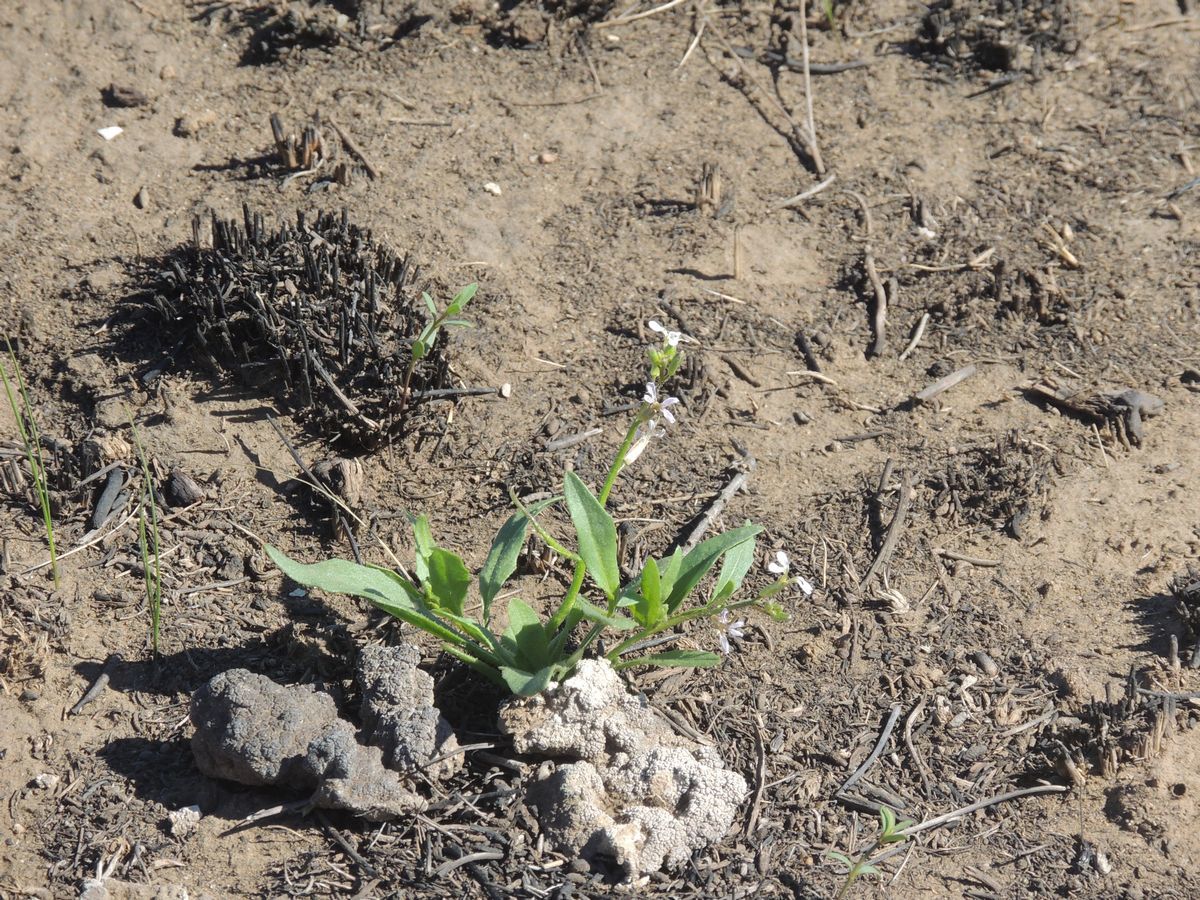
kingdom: Plantae
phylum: Tracheophyta
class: Magnoliopsida
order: Brassicales
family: Brassicaceae
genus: Chorispora
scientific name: Chorispora tenella
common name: Crossflower
